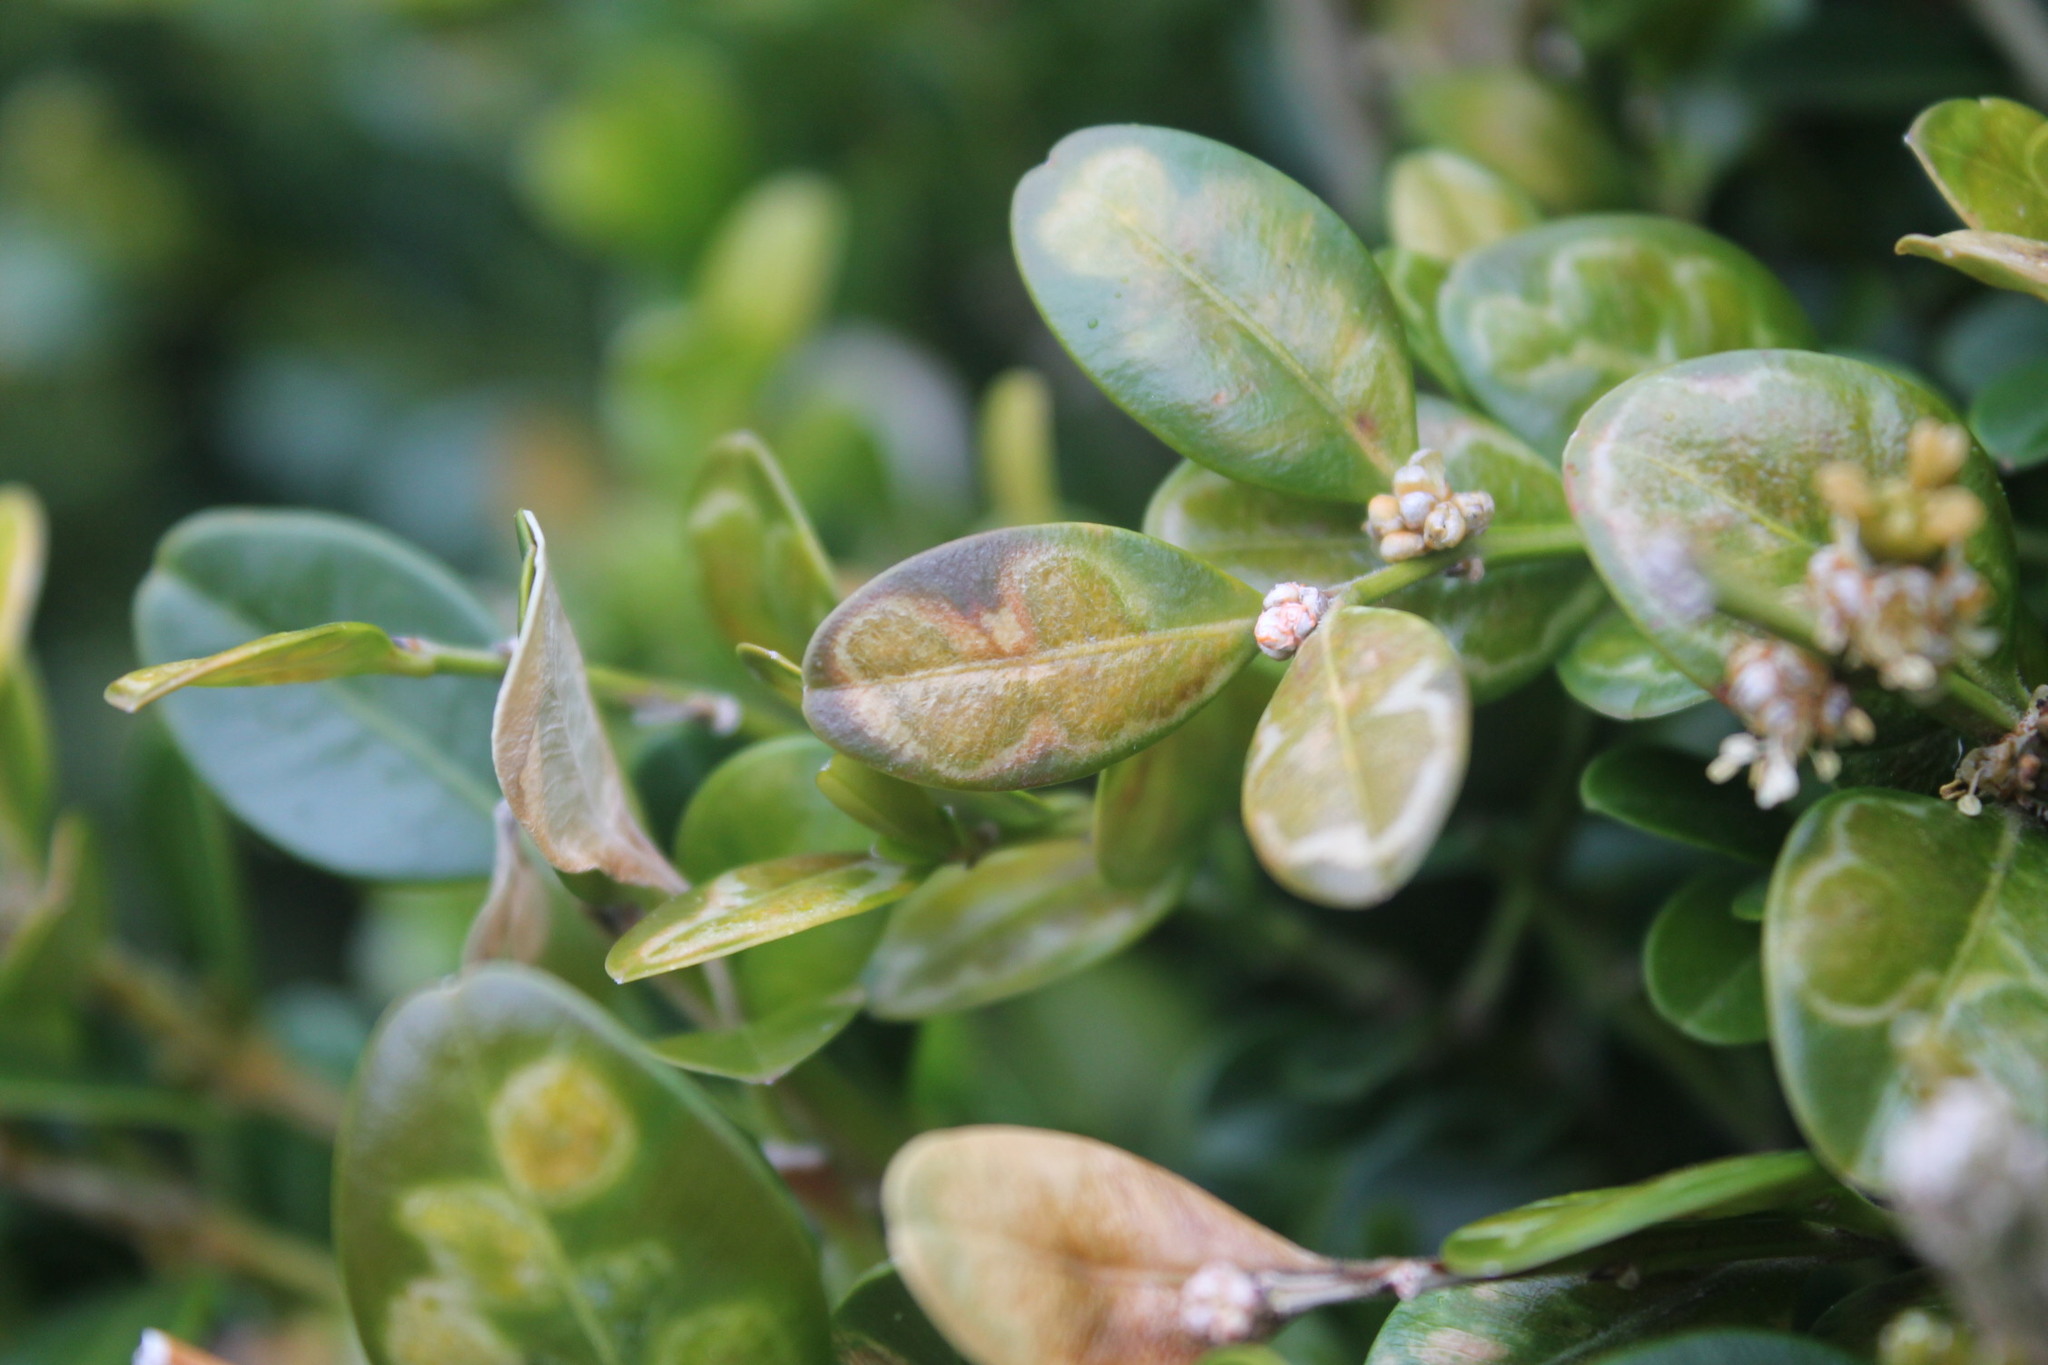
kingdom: Animalia
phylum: Arthropoda
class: Insecta
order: Diptera
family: Cecidomyiidae
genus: Monarthropalpus
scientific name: Monarthropalpus flavus
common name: Boxwood leafminer
